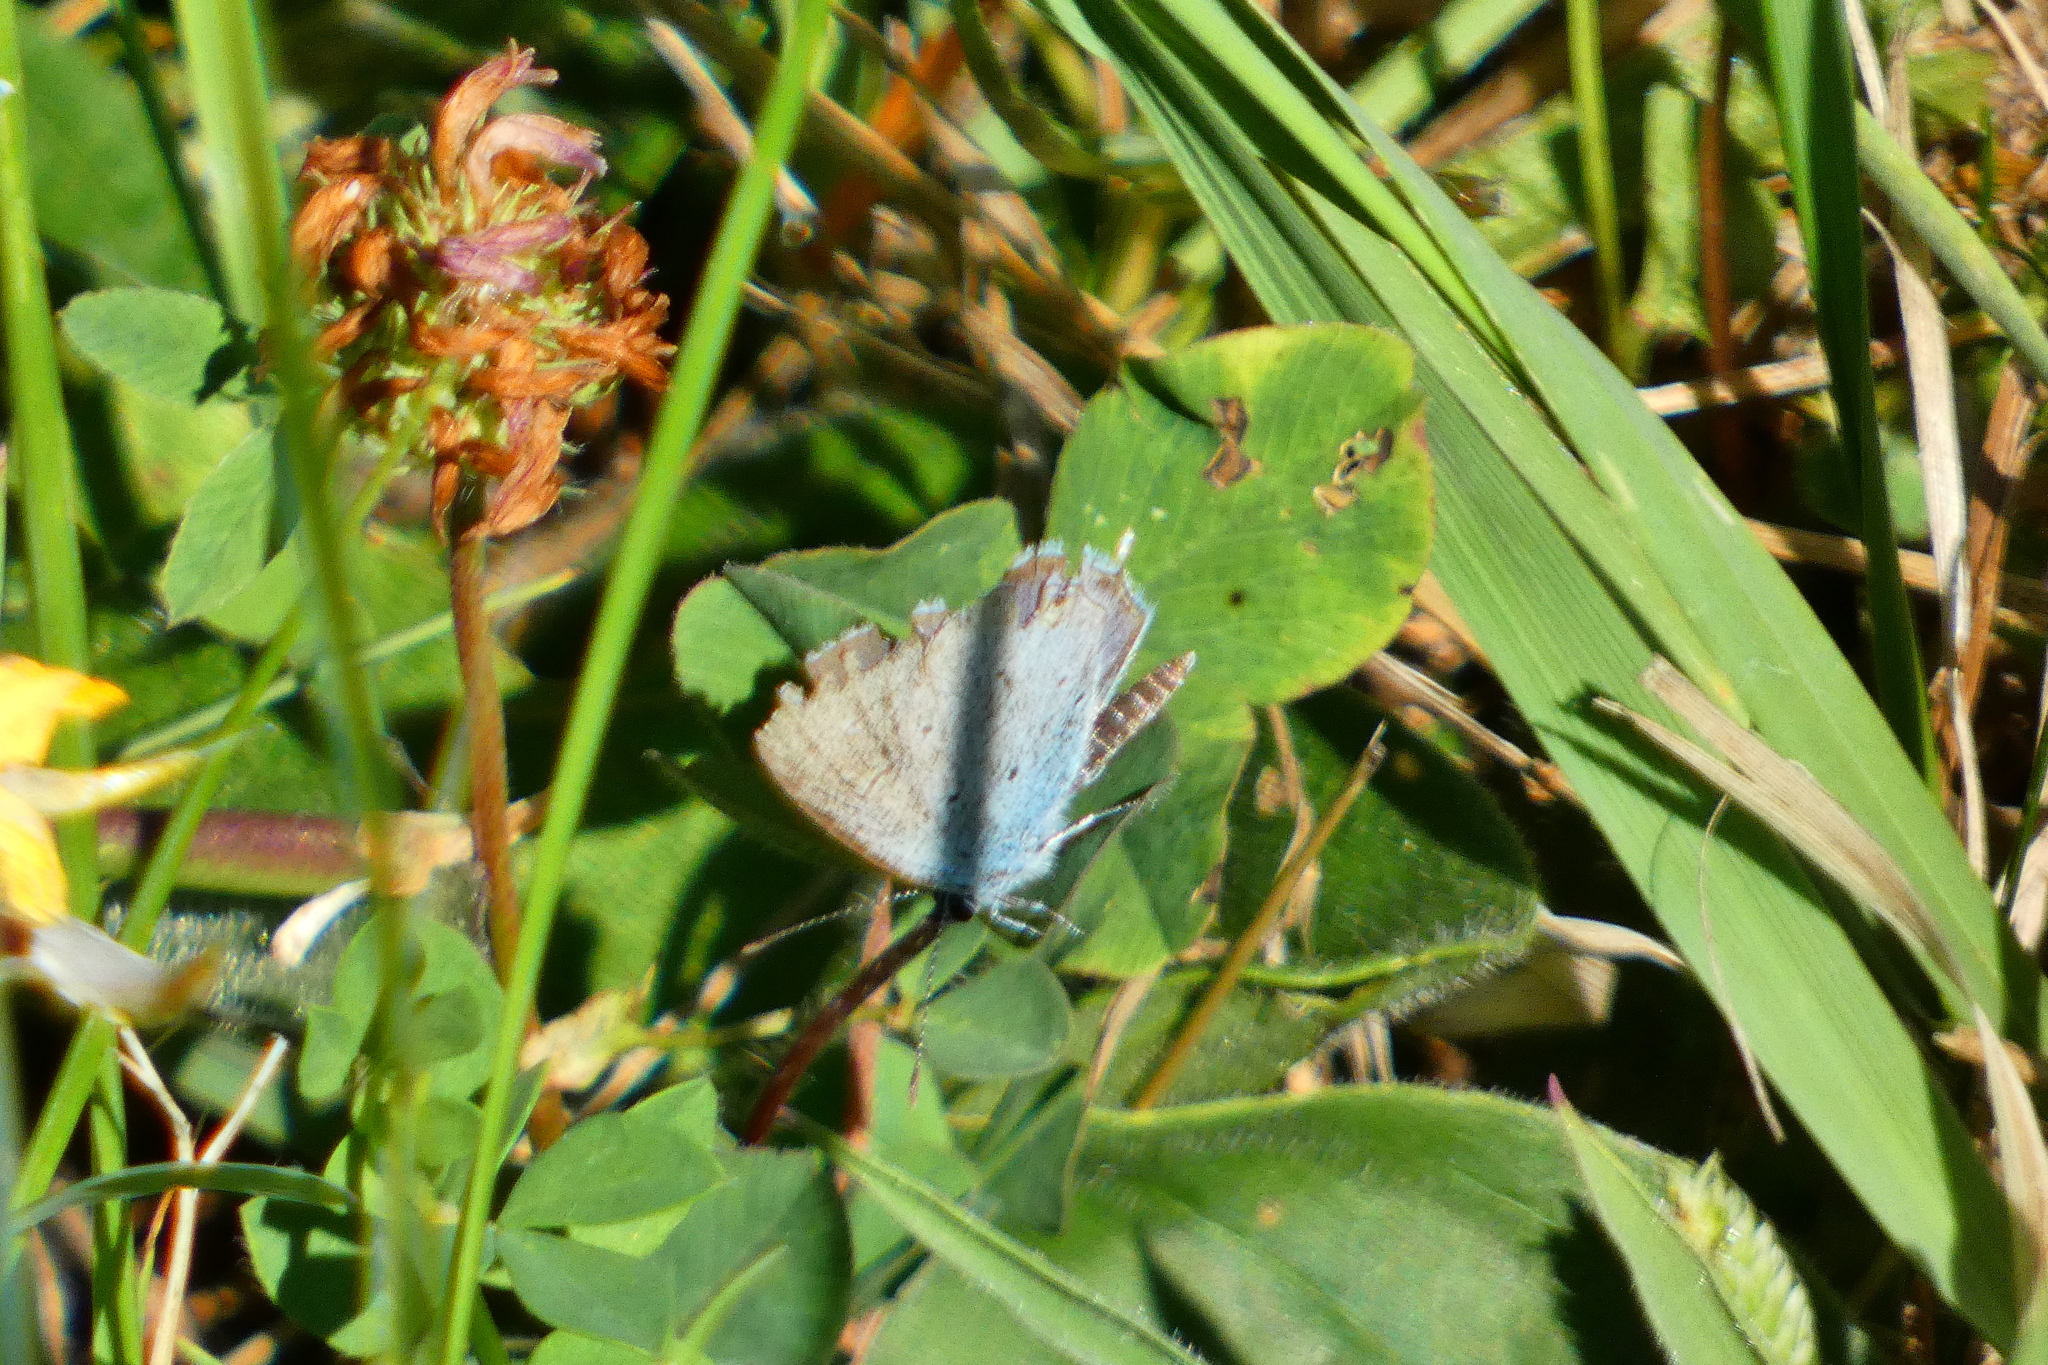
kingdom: Animalia
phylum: Arthropoda
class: Insecta
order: Lepidoptera
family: Lycaenidae
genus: Elkalyce
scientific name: Elkalyce argiades
